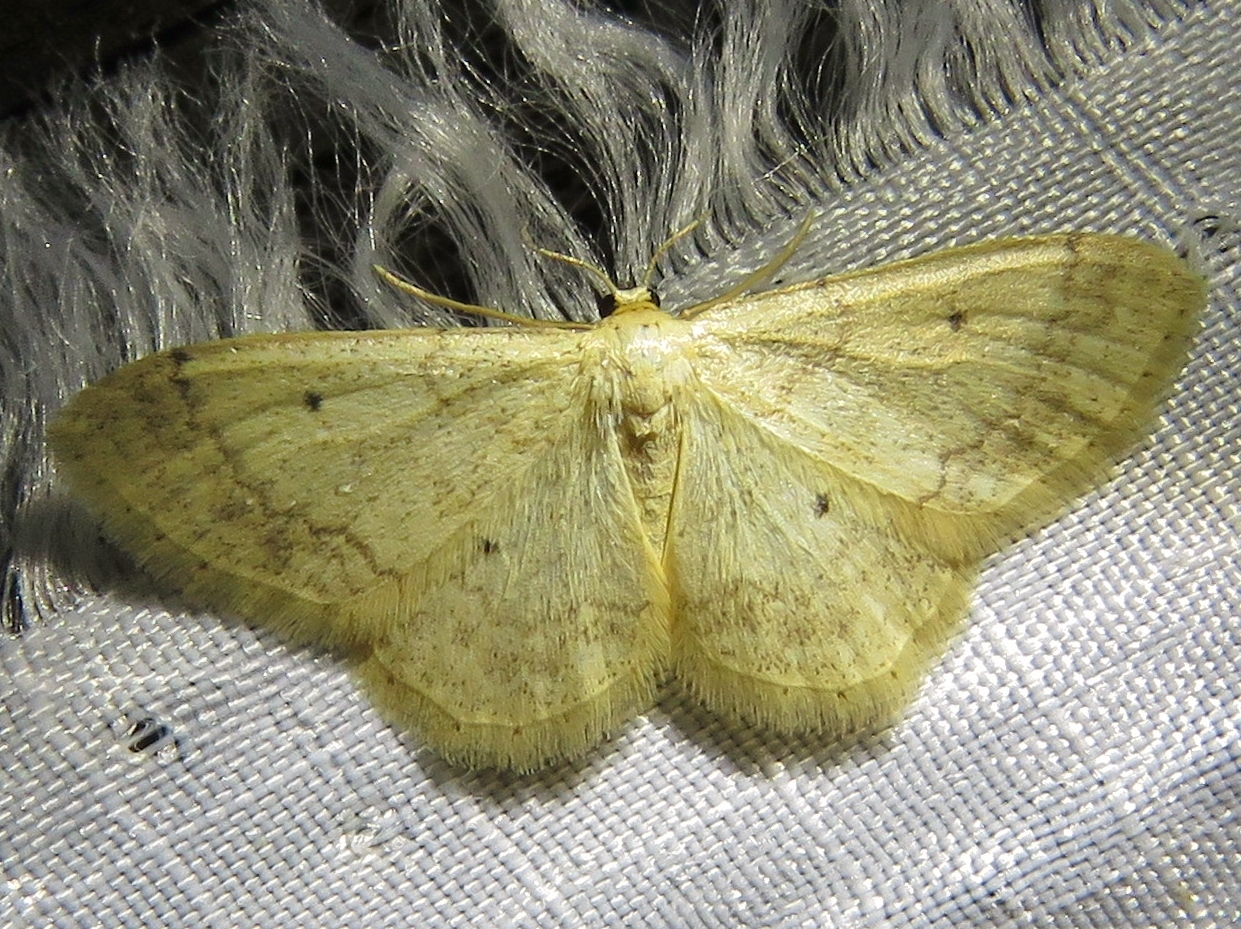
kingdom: Animalia
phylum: Arthropoda
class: Insecta
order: Lepidoptera
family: Geometridae
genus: Idaea
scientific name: Idaea biselata
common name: Small fan-footed wave
